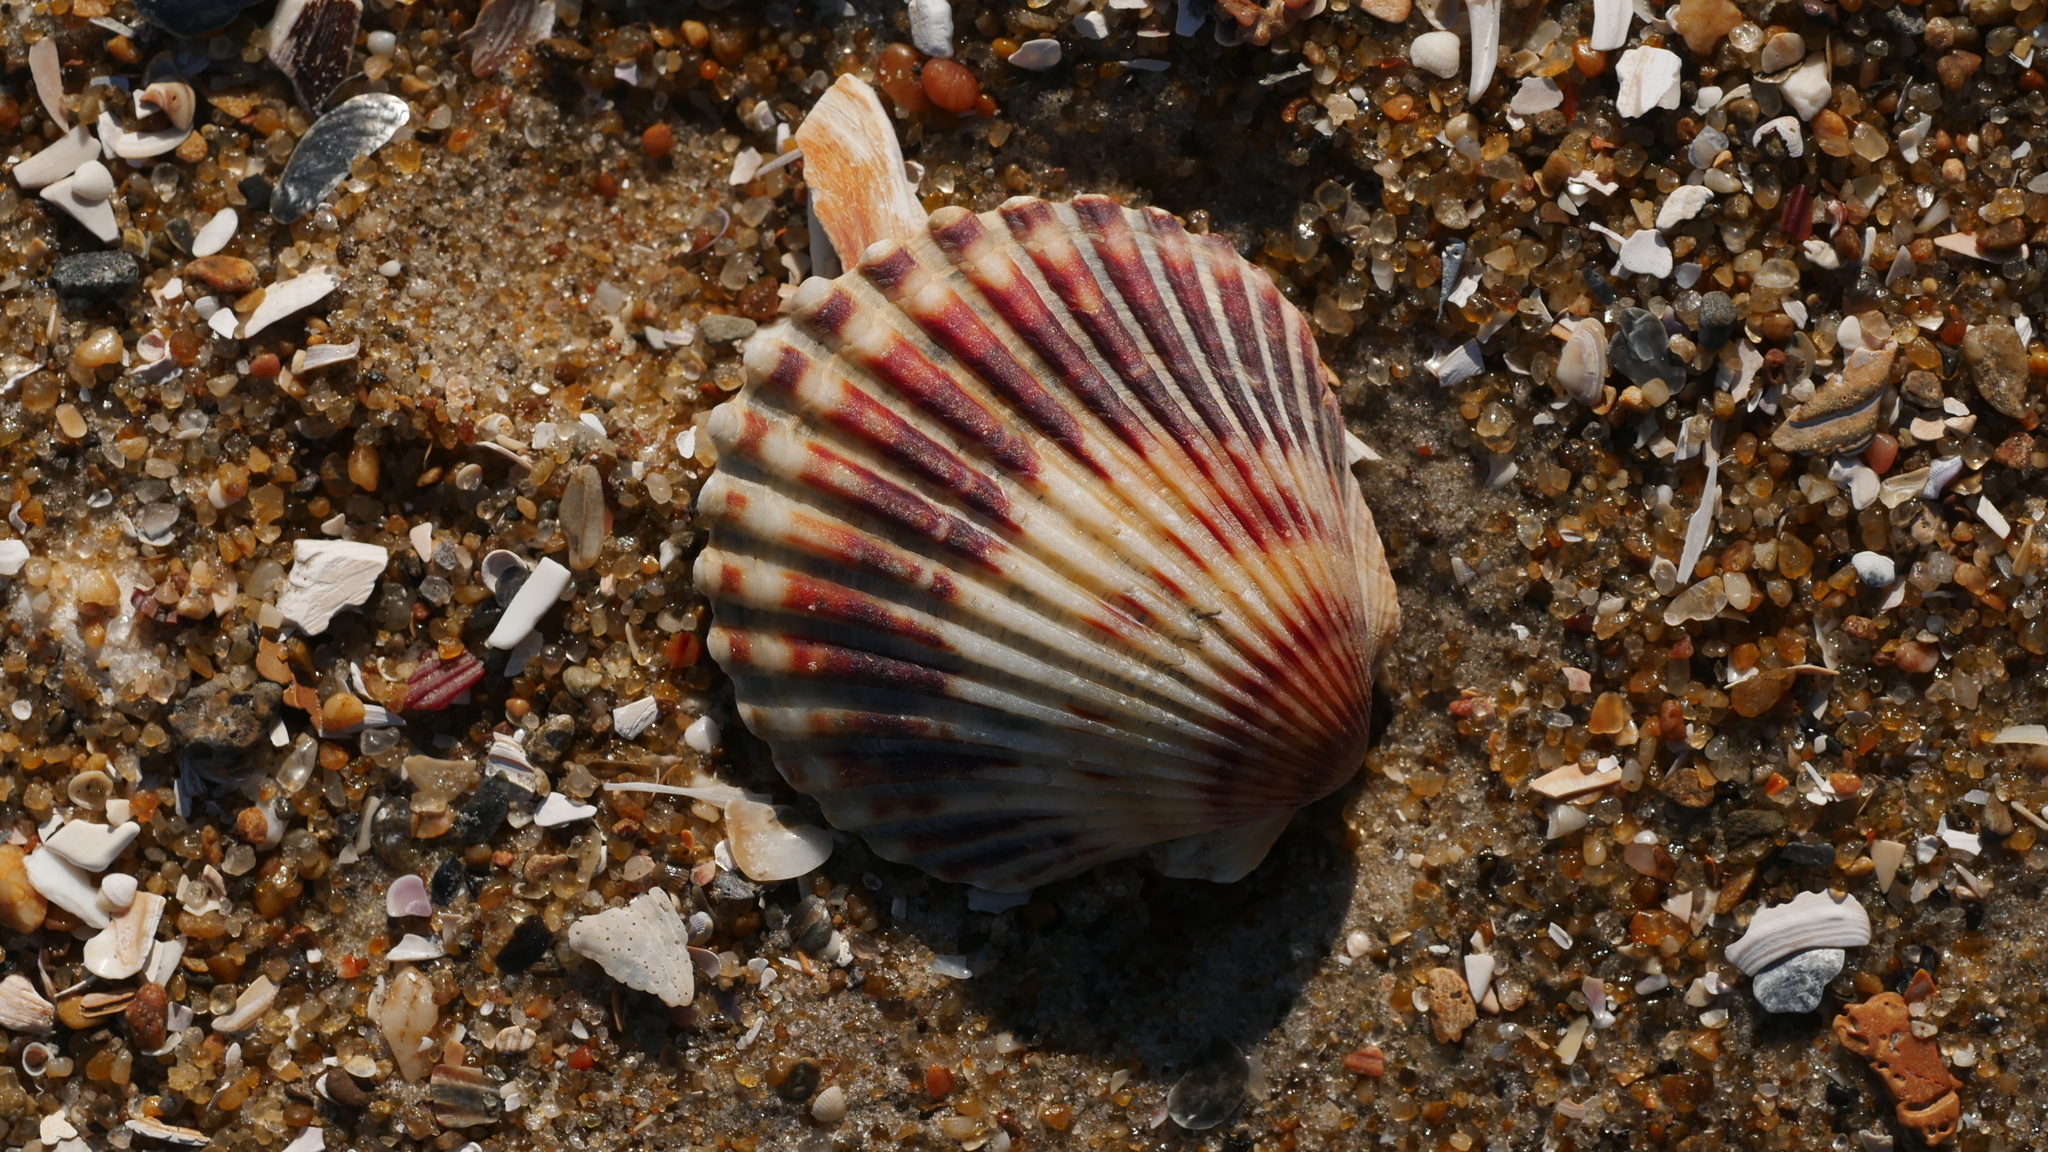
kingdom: Animalia
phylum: Mollusca
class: Bivalvia
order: Pectinida
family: Pectinidae
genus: Argopecten
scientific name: Argopecten irradians
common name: Atlantic bay scallop
